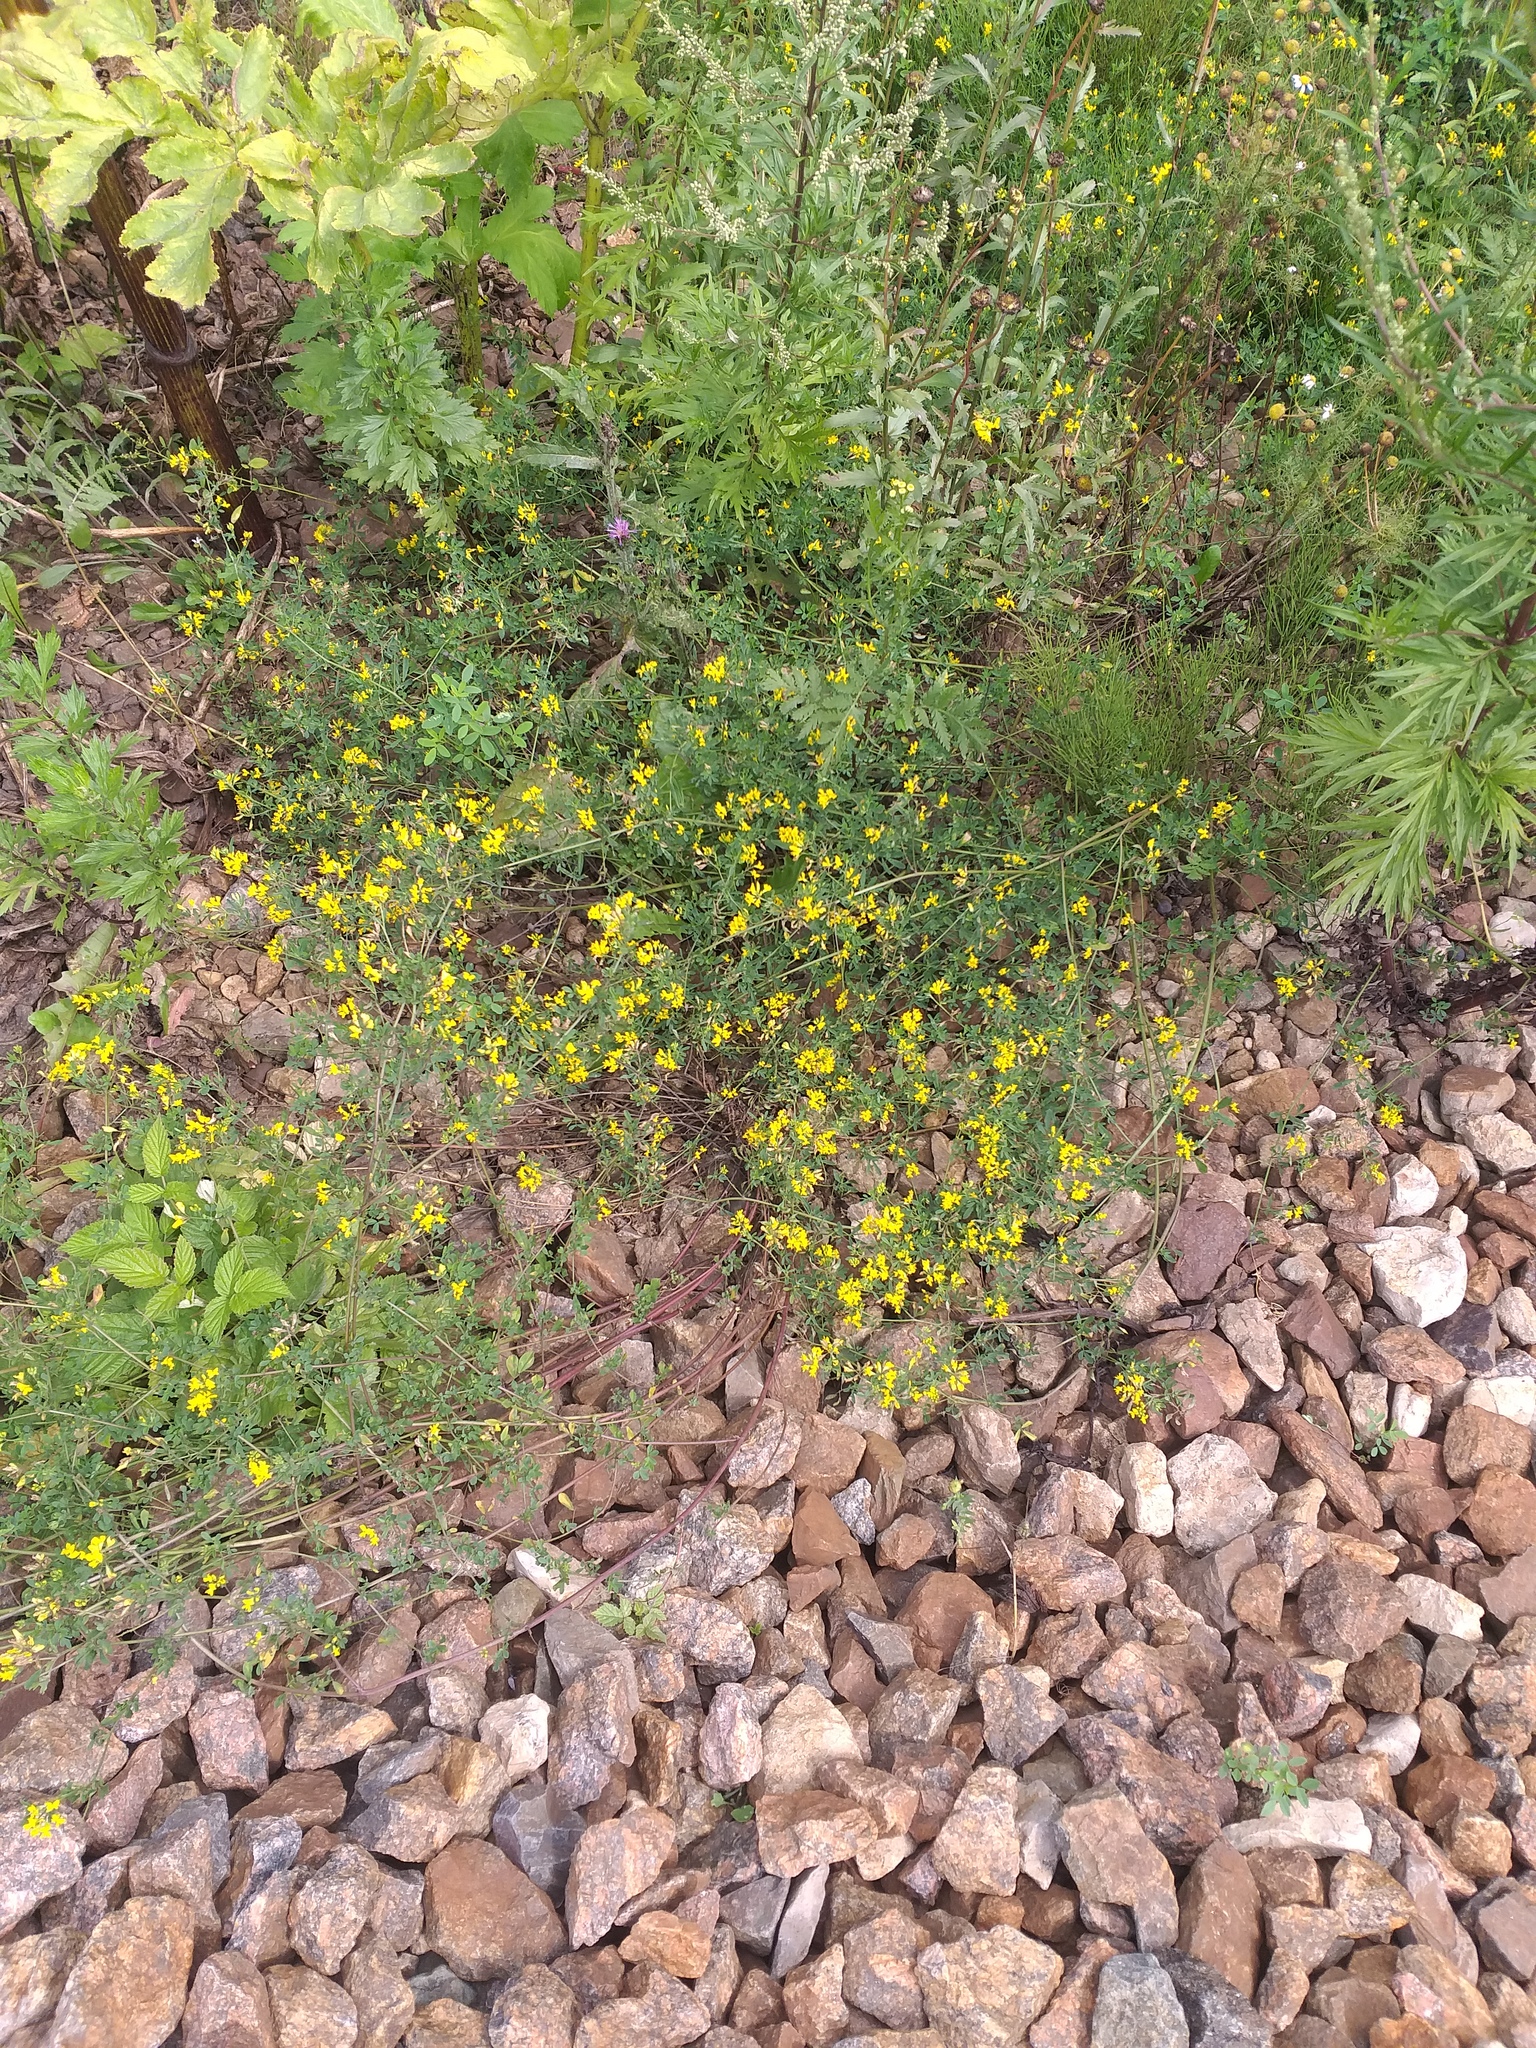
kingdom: Plantae
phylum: Tracheophyta
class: Magnoliopsida
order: Fabales
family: Fabaceae
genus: Medicago
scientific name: Medicago falcata
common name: Sickle medick
